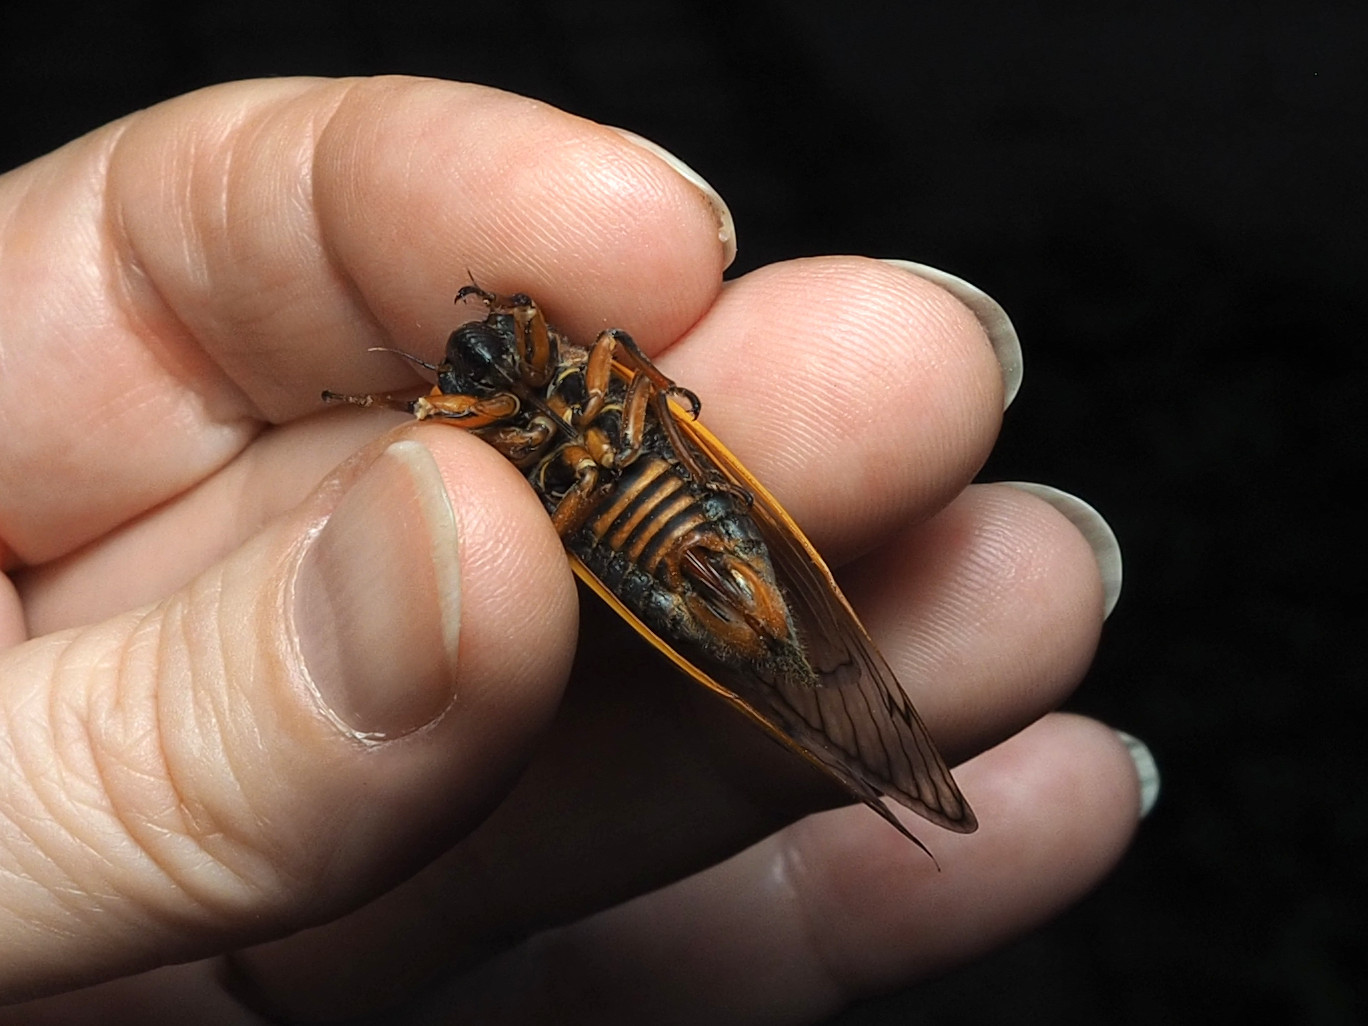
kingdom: Animalia
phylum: Arthropoda
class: Insecta
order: Hemiptera
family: Cicadidae
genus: Magicicada
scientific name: Magicicada septendecim
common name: Periodical cicada
